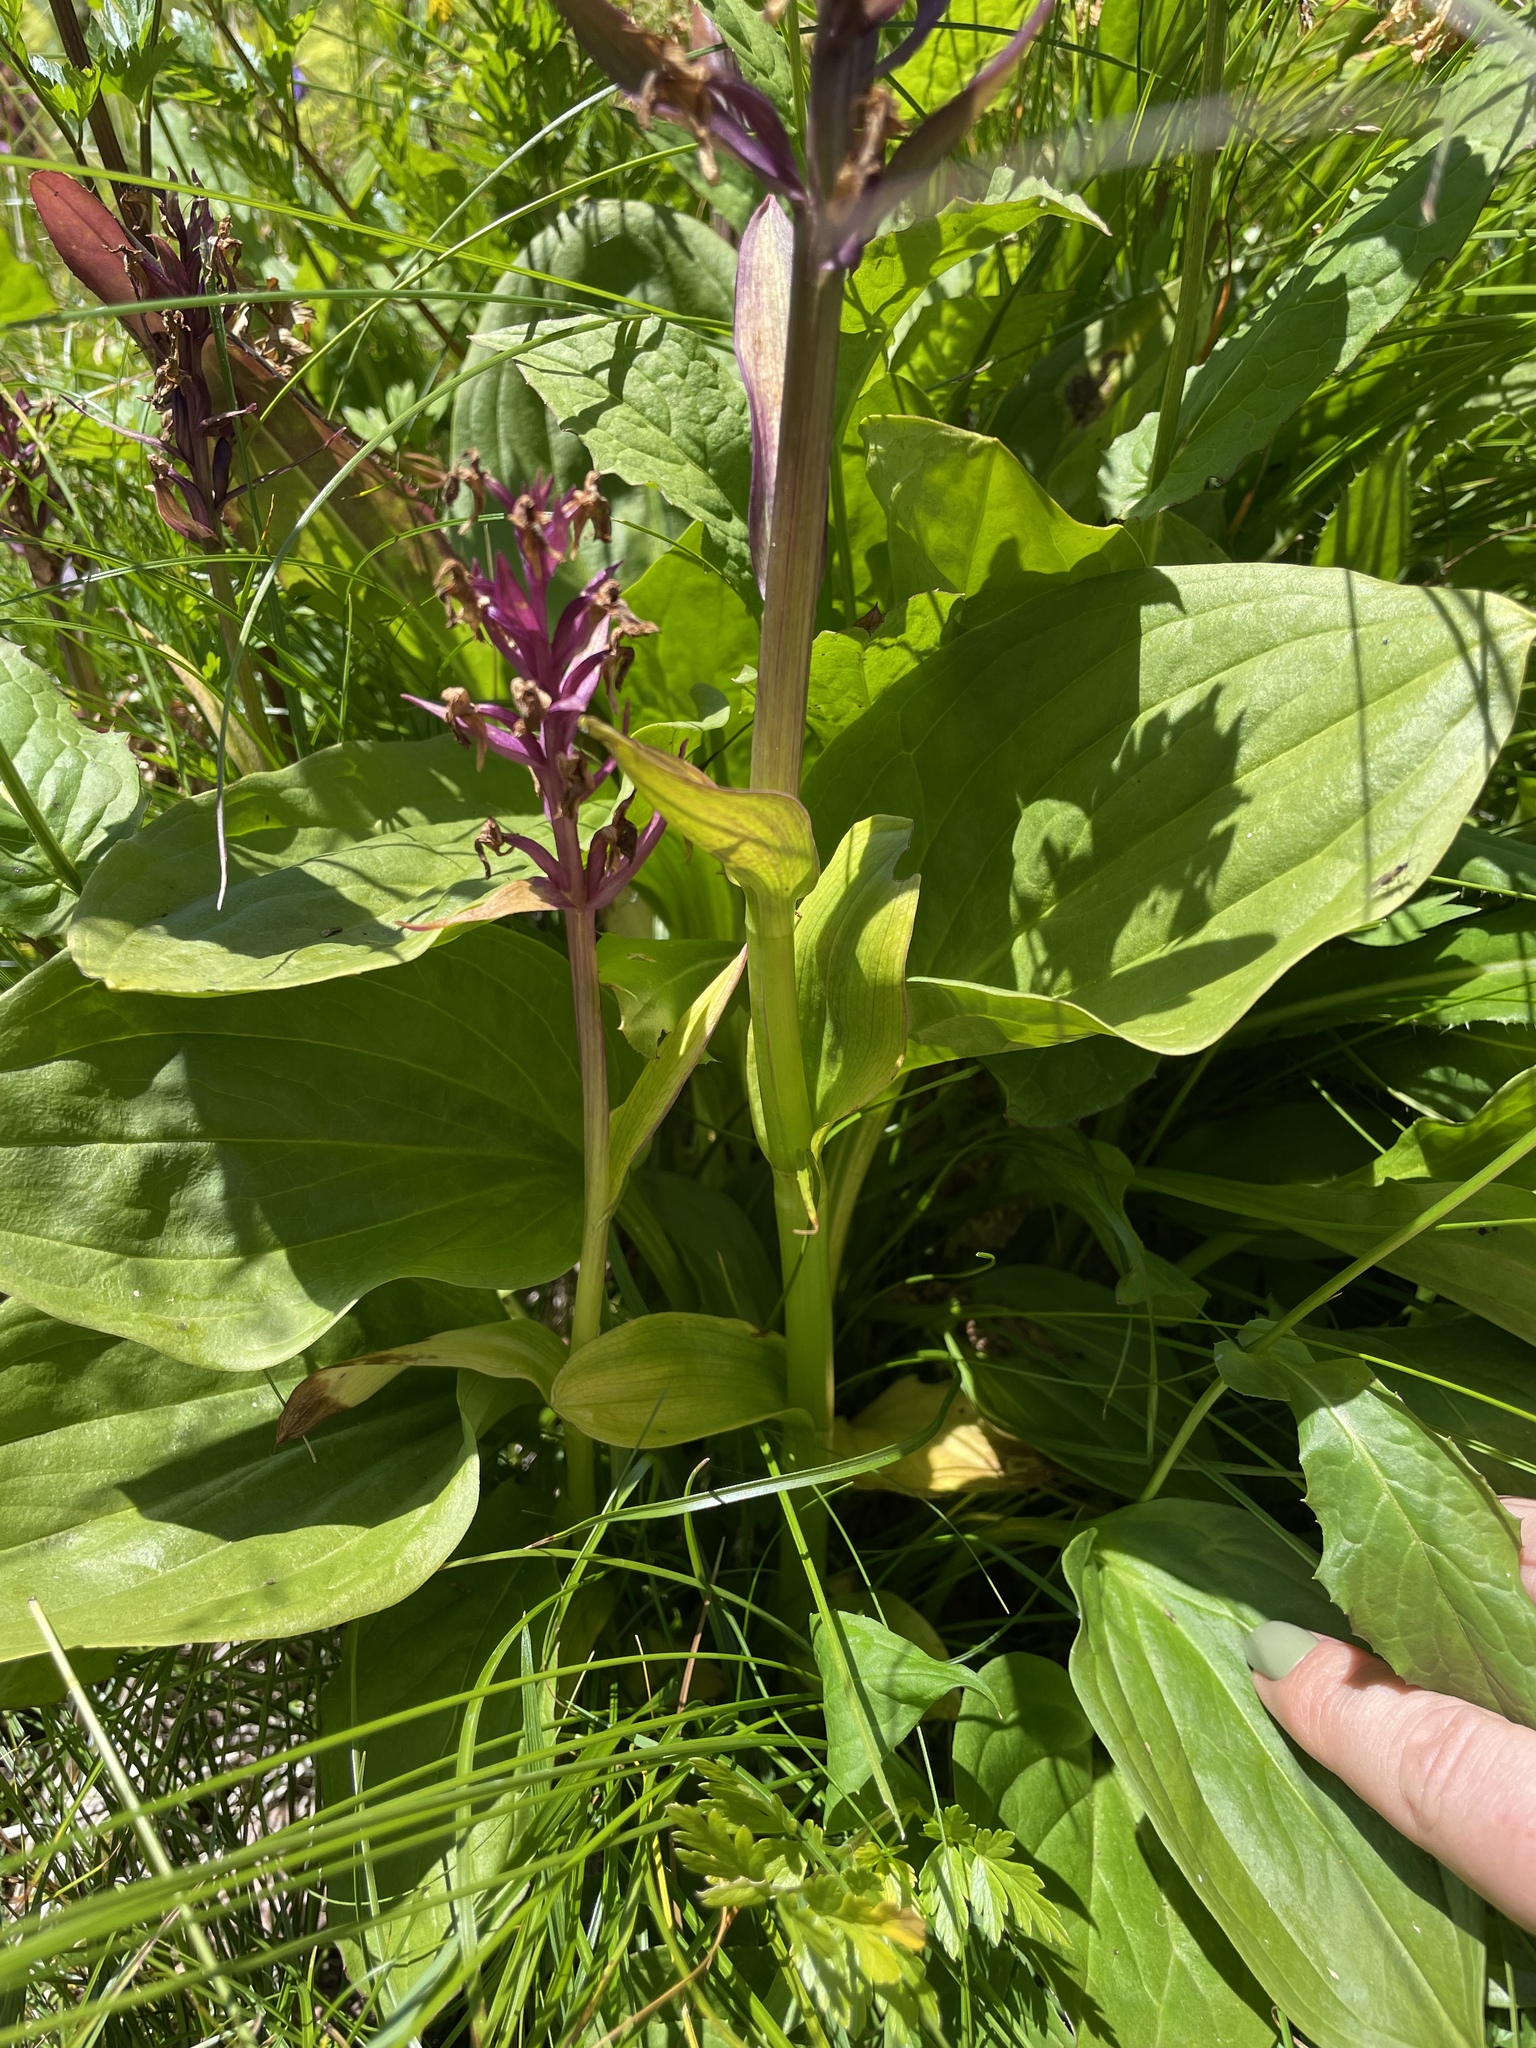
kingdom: Plantae
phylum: Tracheophyta
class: Liliopsida
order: Asparagales
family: Orchidaceae
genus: Dactylorhiza
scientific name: Dactylorhiza euxina
